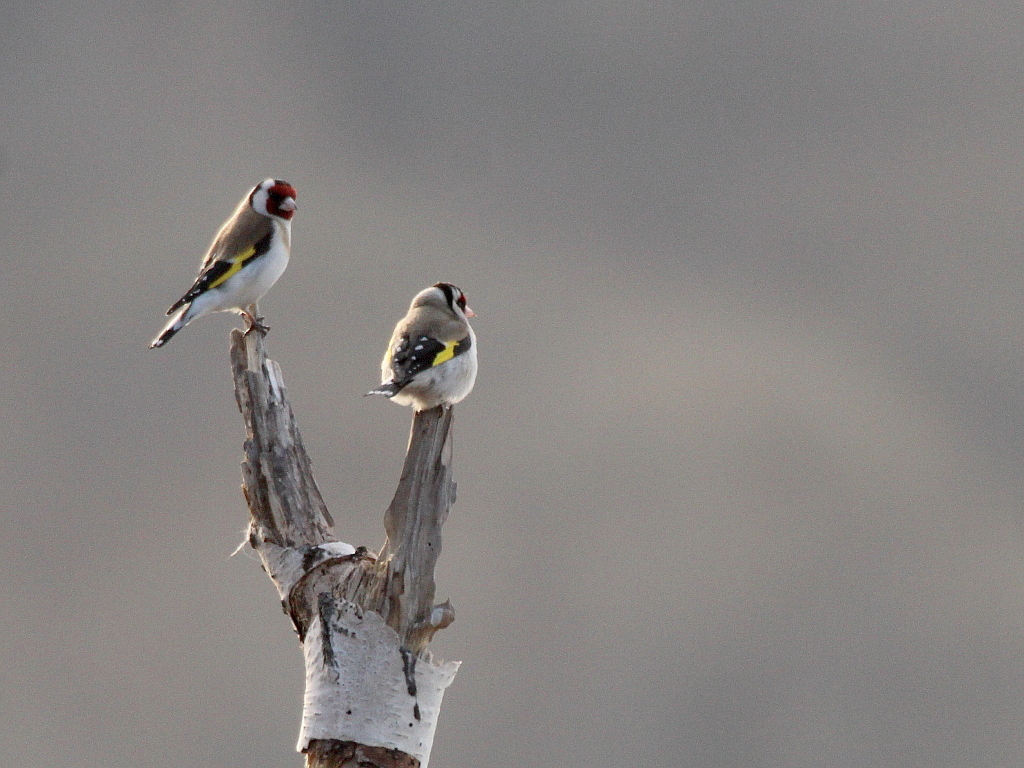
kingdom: Animalia
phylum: Chordata
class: Aves
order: Passeriformes
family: Fringillidae
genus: Carduelis
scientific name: Carduelis carduelis
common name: European goldfinch
